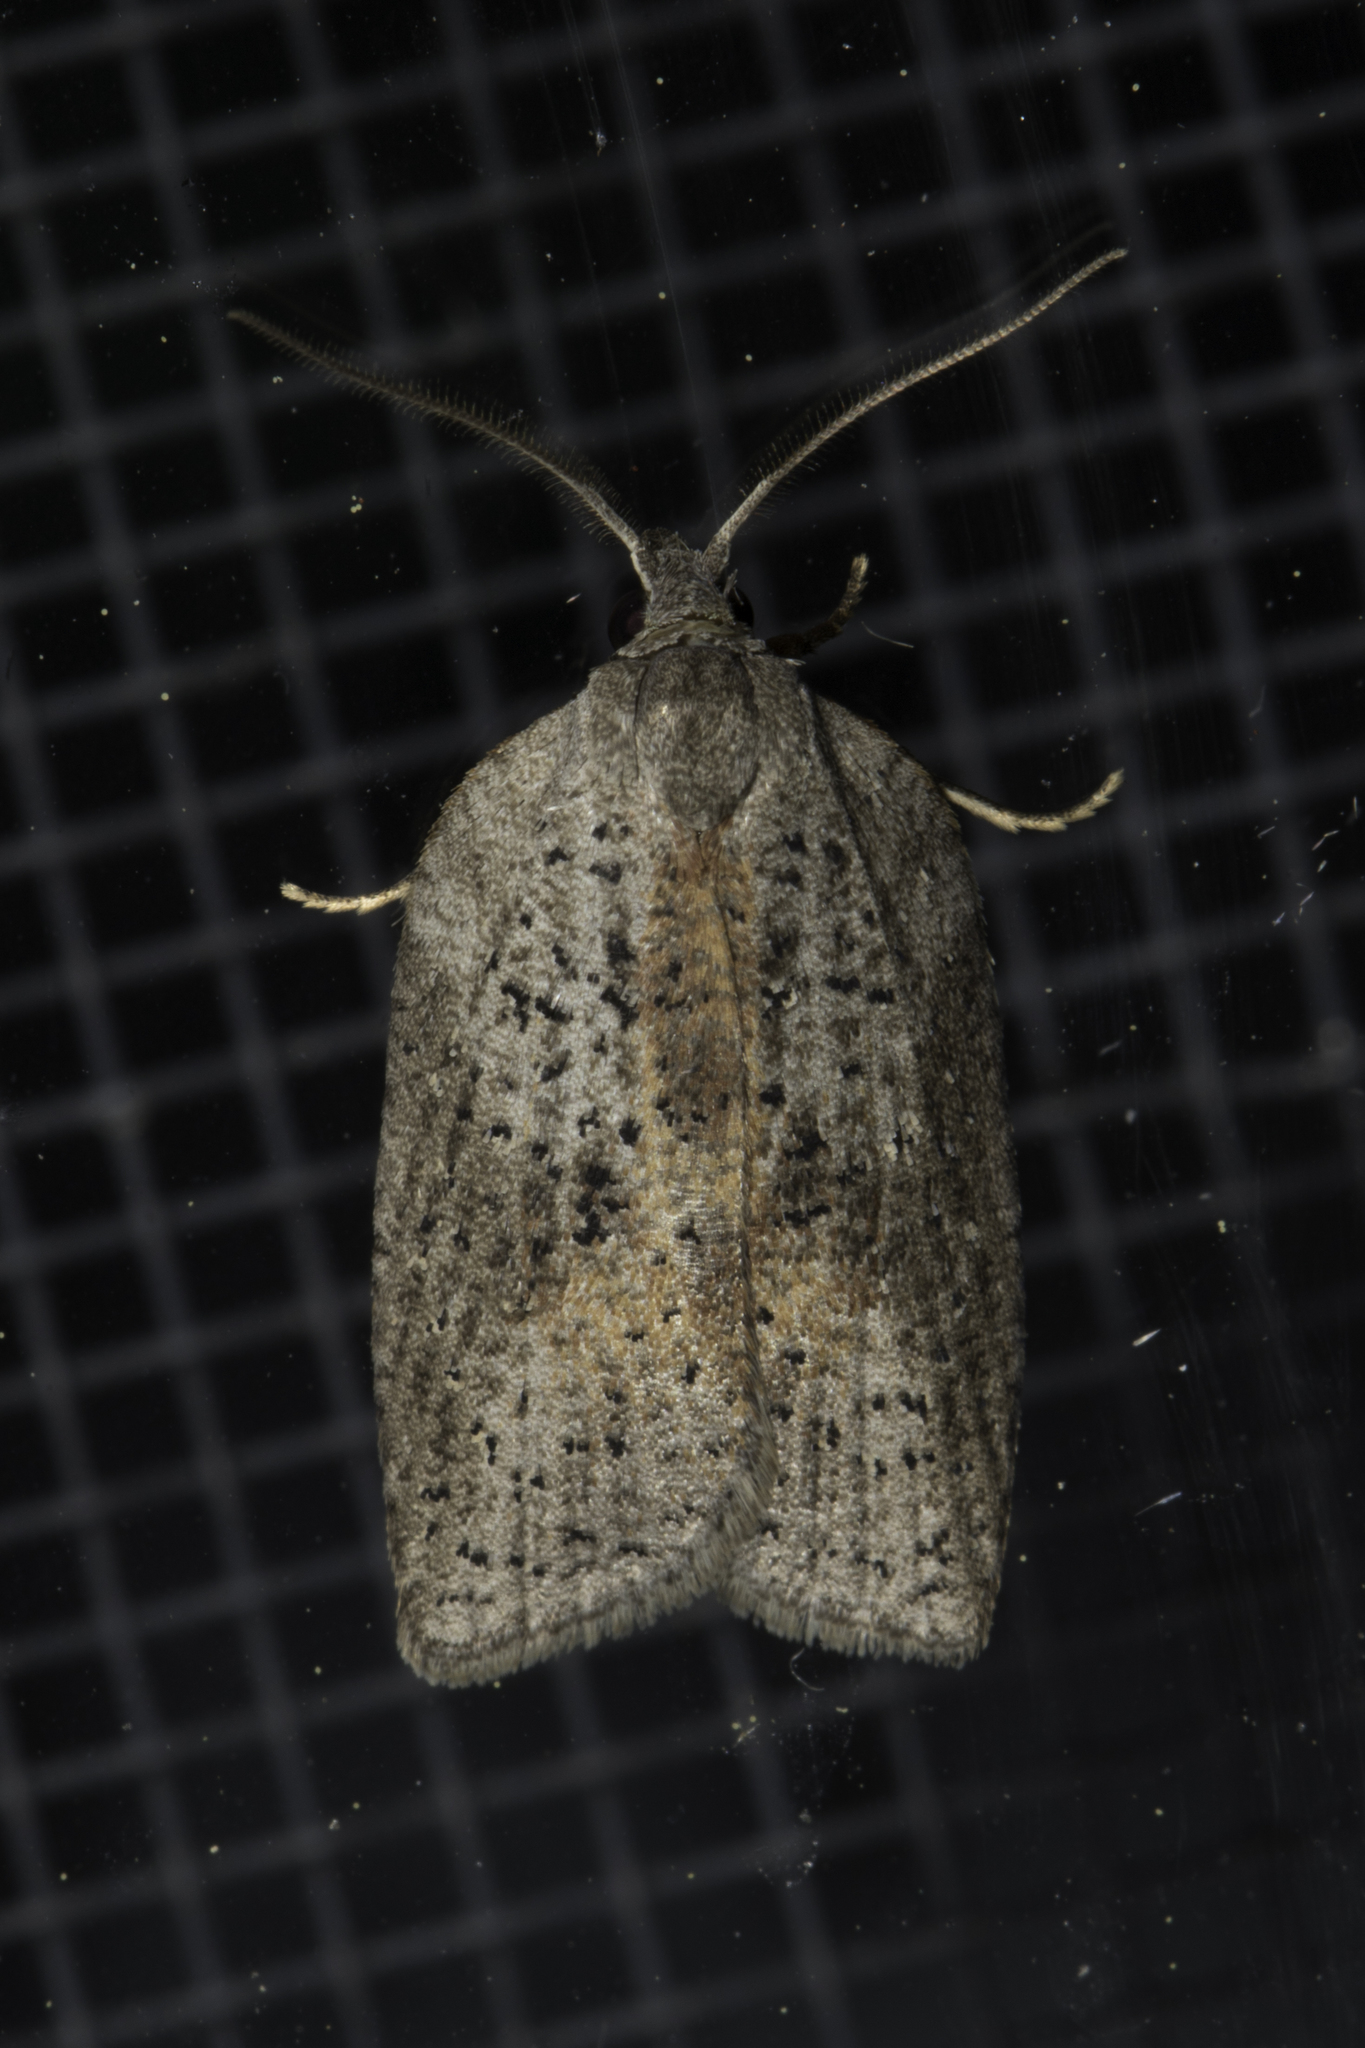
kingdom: Animalia
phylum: Arthropoda
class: Insecta
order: Lepidoptera
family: Tortricidae
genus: Amorbia
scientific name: Amorbia humerosana
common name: White-lined leafroller moth
